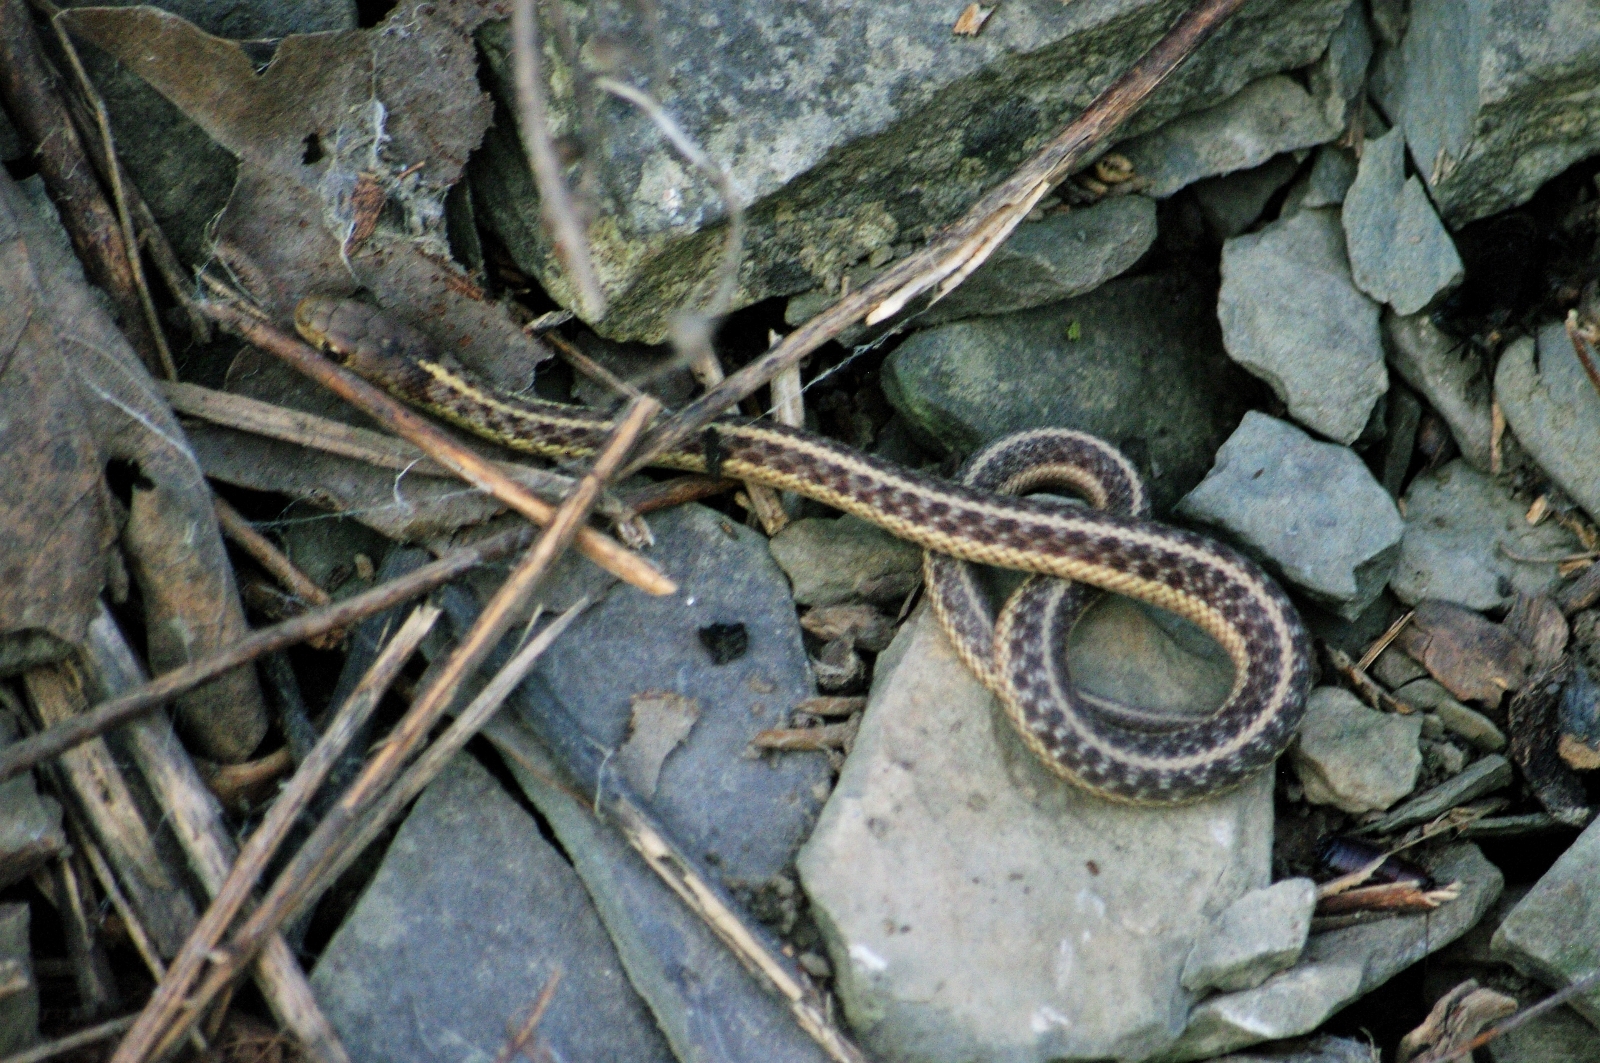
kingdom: Animalia
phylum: Chordata
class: Squamata
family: Colubridae
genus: Thamnophis
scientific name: Thamnophis sirtalis
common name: Common garter snake
